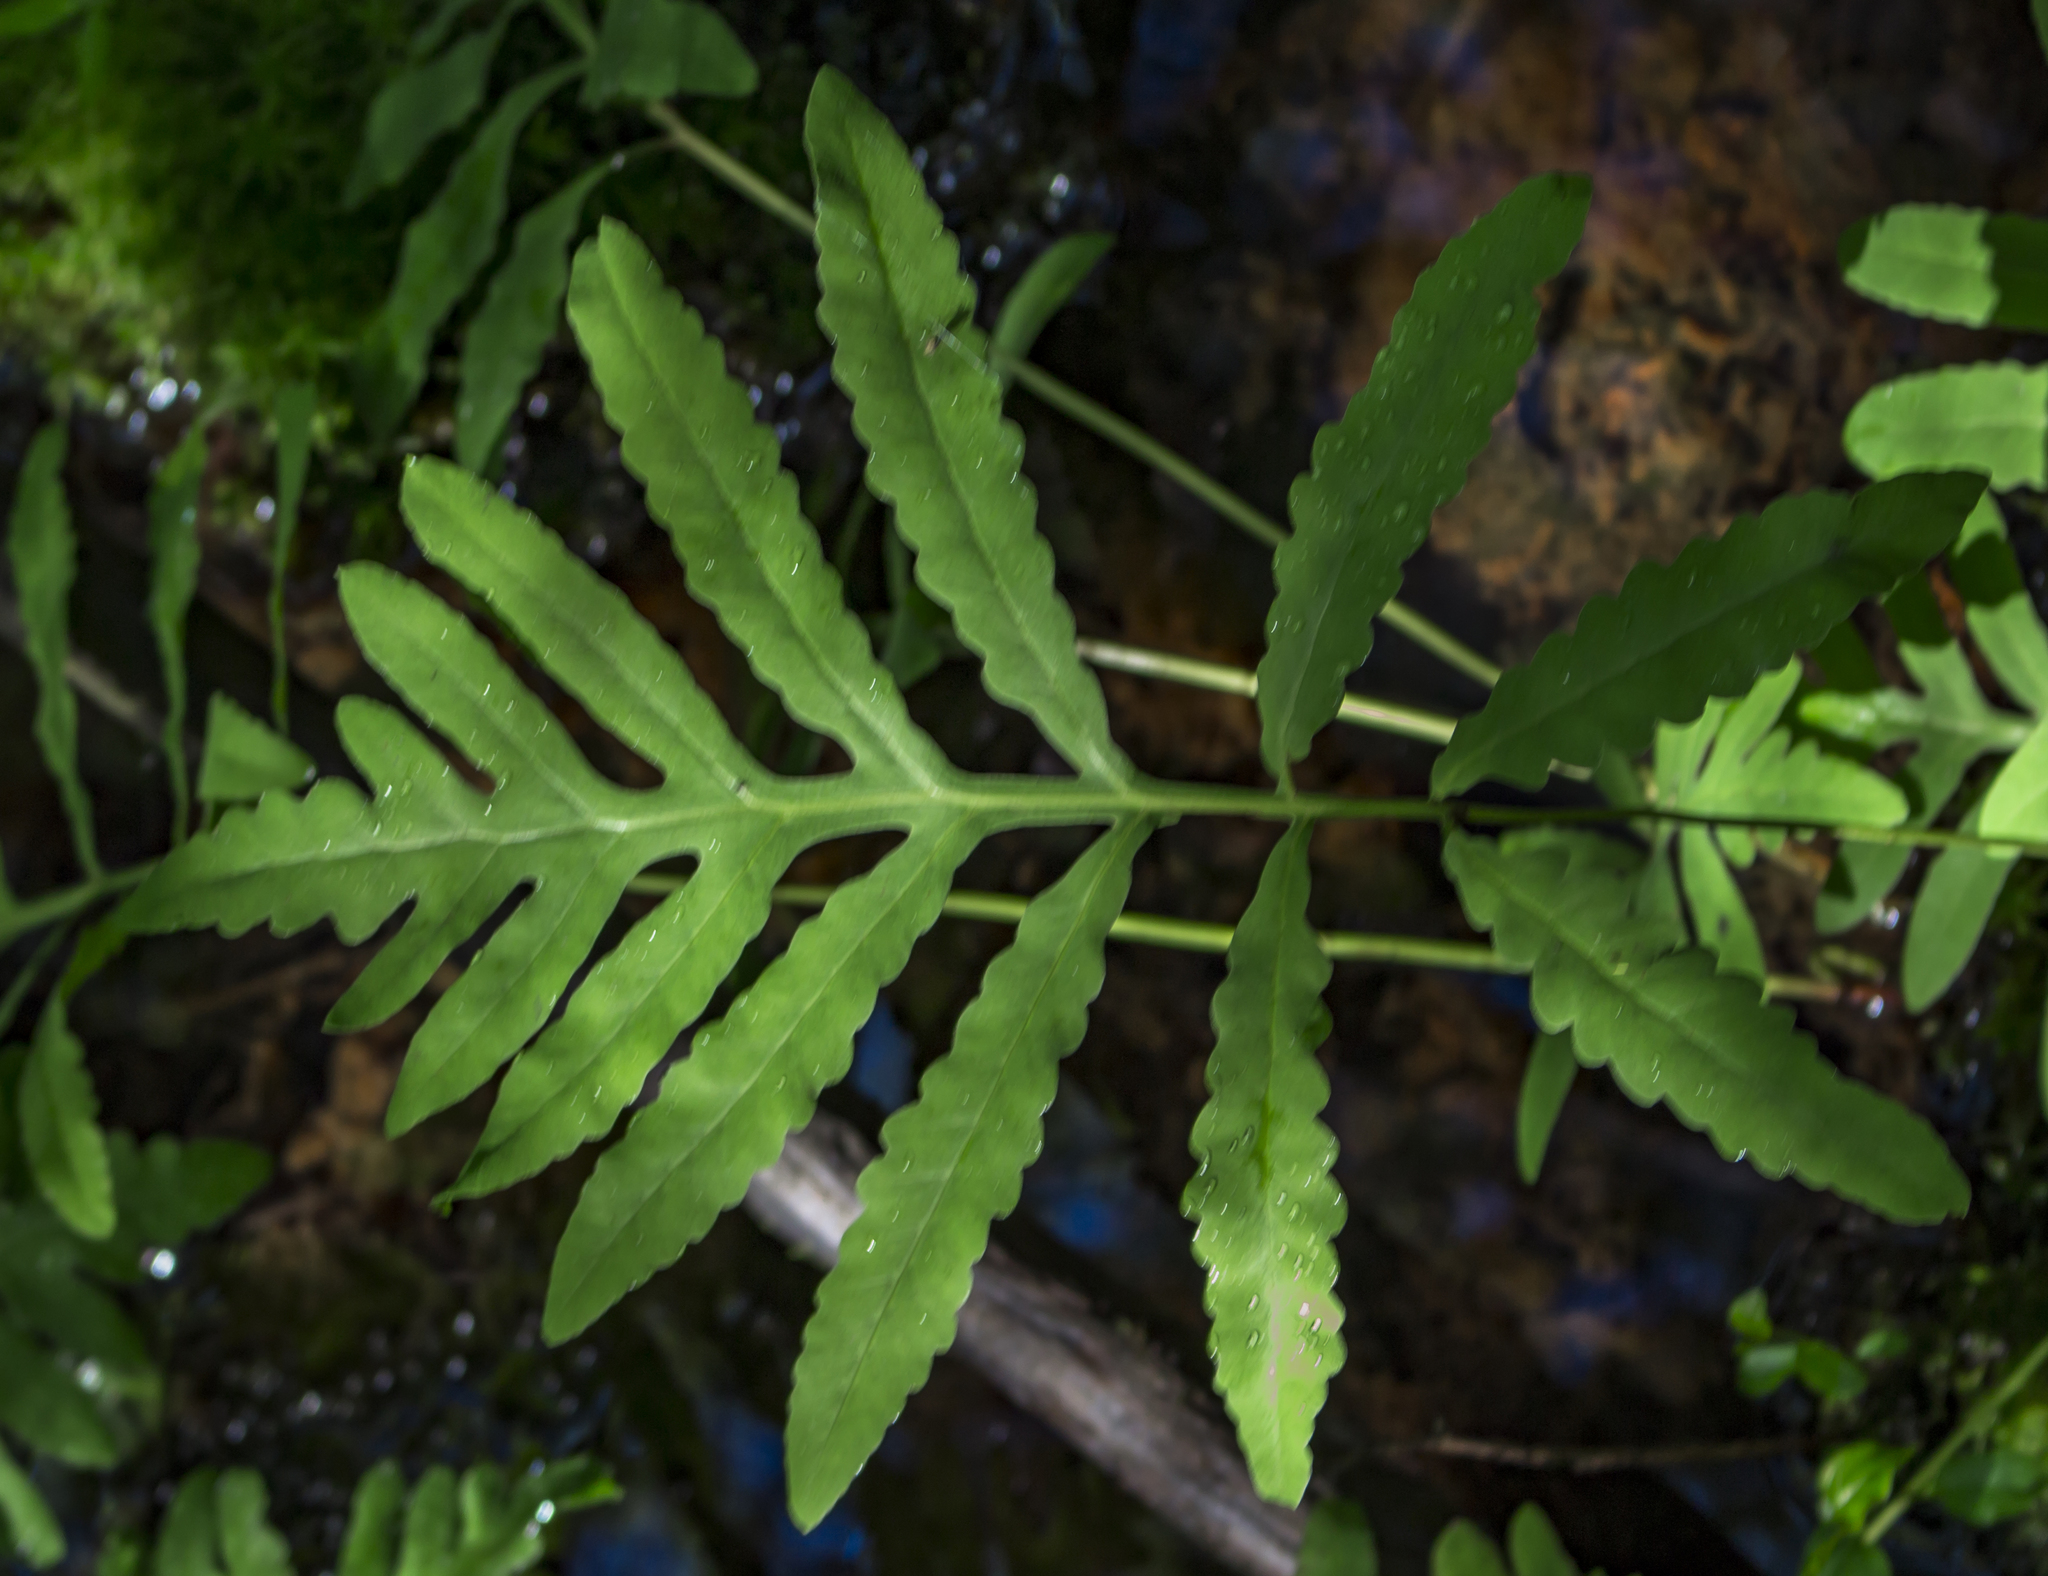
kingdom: Plantae
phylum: Tracheophyta
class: Polypodiopsida
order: Polypodiales
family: Onocleaceae
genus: Onoclea
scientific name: Onoclea sensibilis
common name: Sensitive fern
